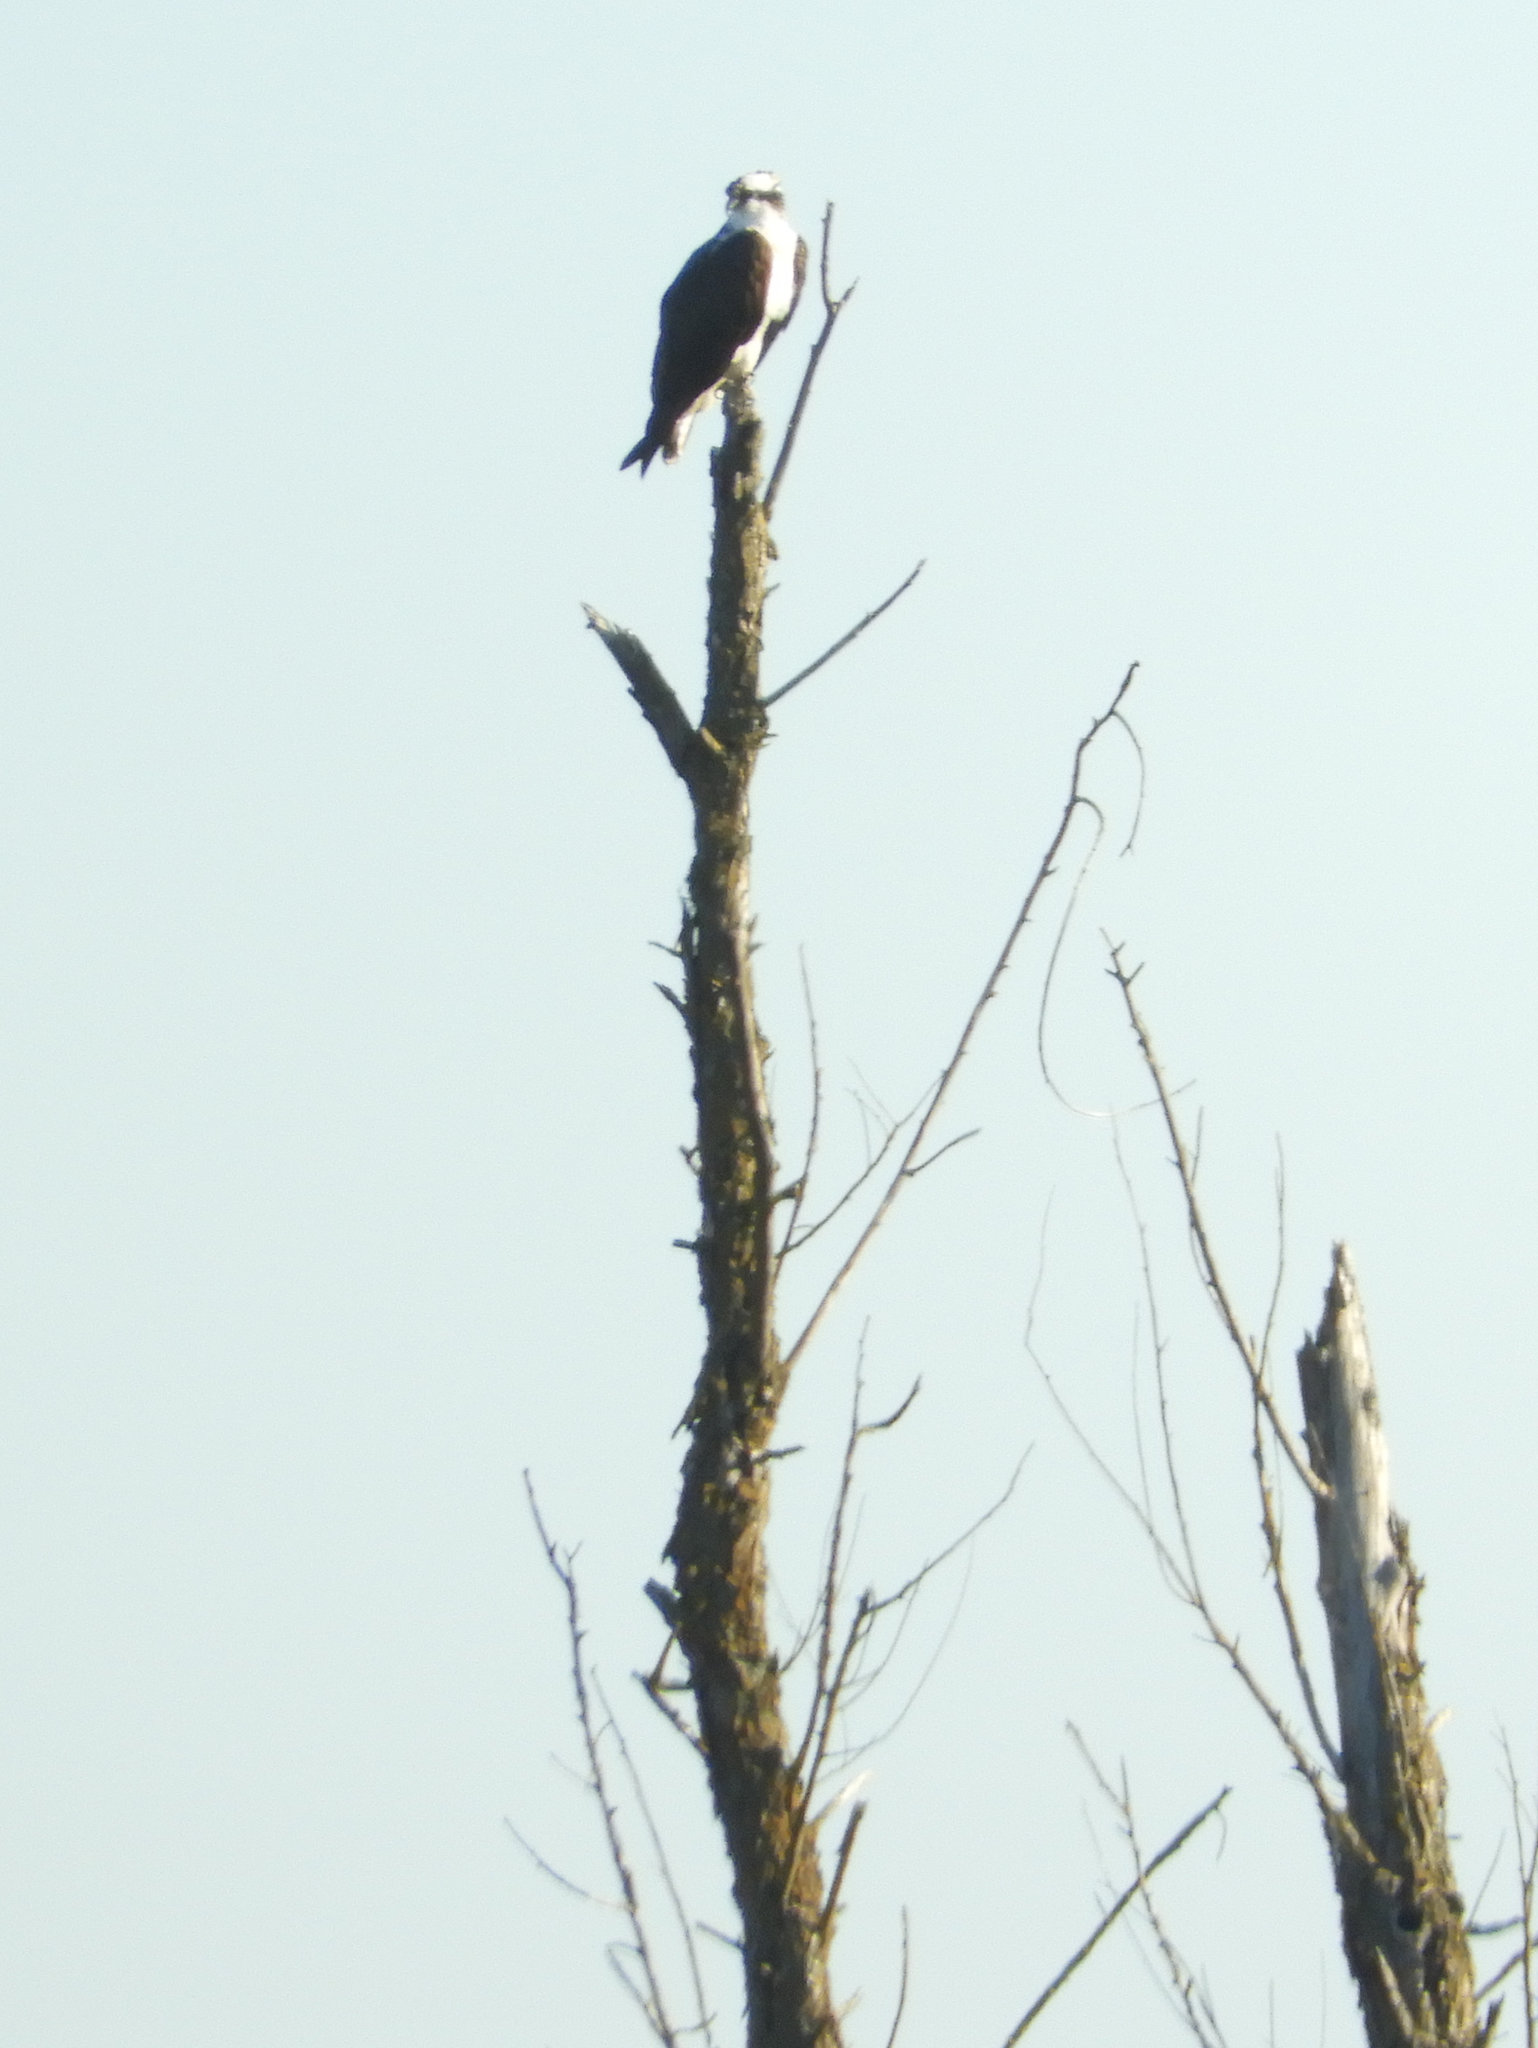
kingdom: Animalia
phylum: Chordata
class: Aves
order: Accipitriformes
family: Pandionidae
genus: Pandion
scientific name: Pandion haliaetus
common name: Osprey
